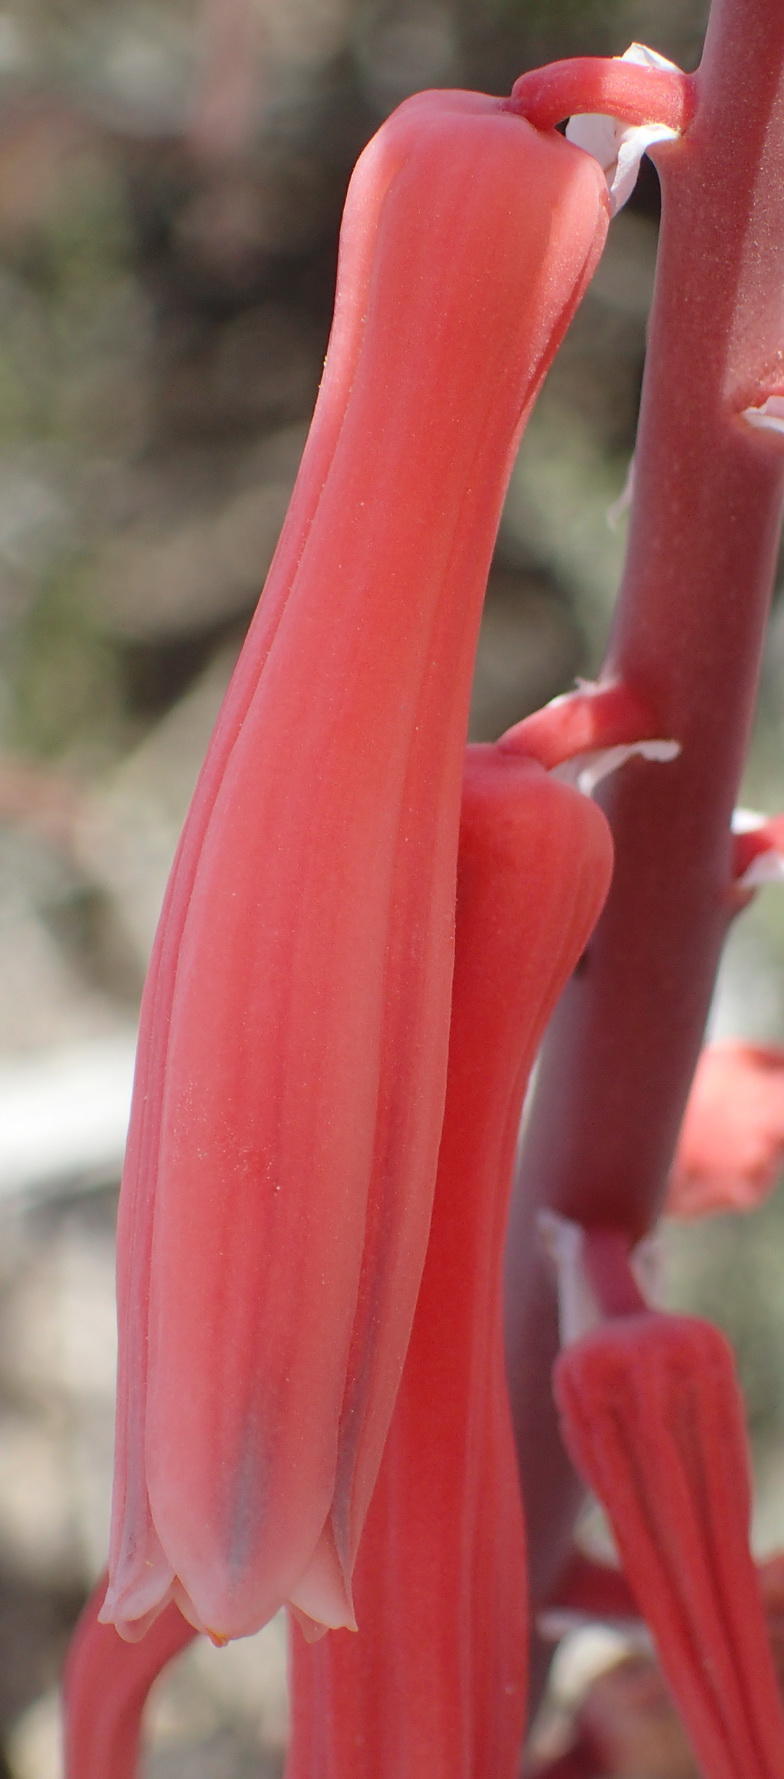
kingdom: Plantae
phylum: Tracheophyta
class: Liliopsida
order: Asparagales
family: Asphodelaceae
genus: Gonialoe
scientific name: Gonialoe variegata
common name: Aloe variegata
